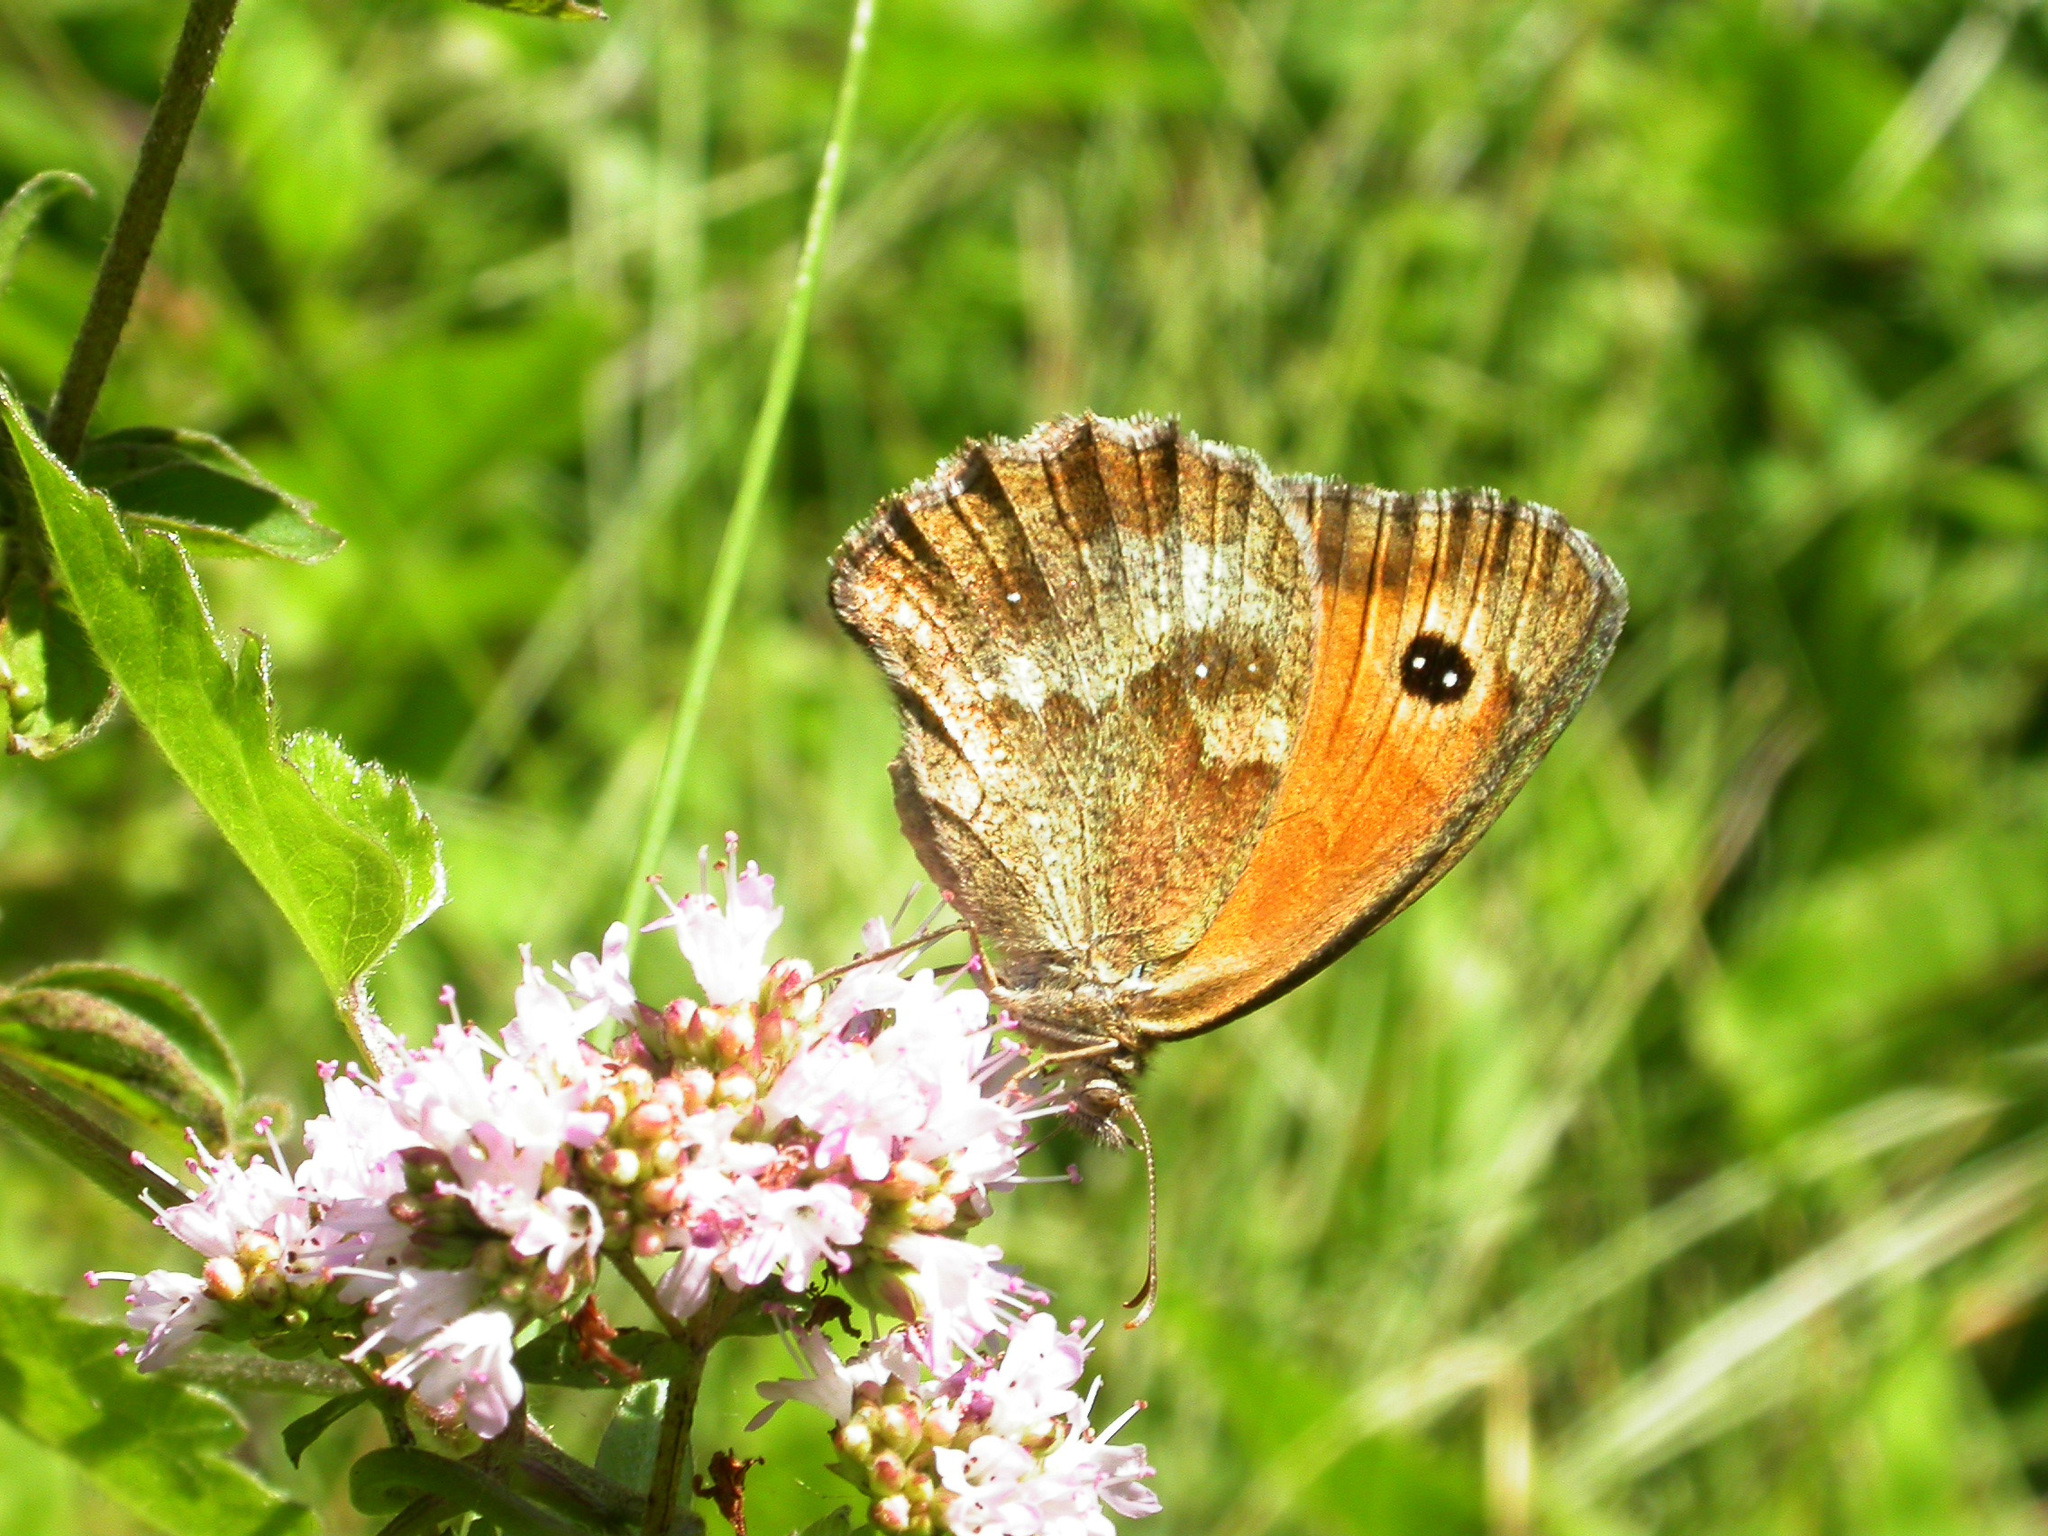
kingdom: Animalia
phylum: Arthropoda
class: Insecta
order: Lepidoptera
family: Nymphalidae
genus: Pyronia
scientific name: Pyronia tithonus
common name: Gatekeeper
